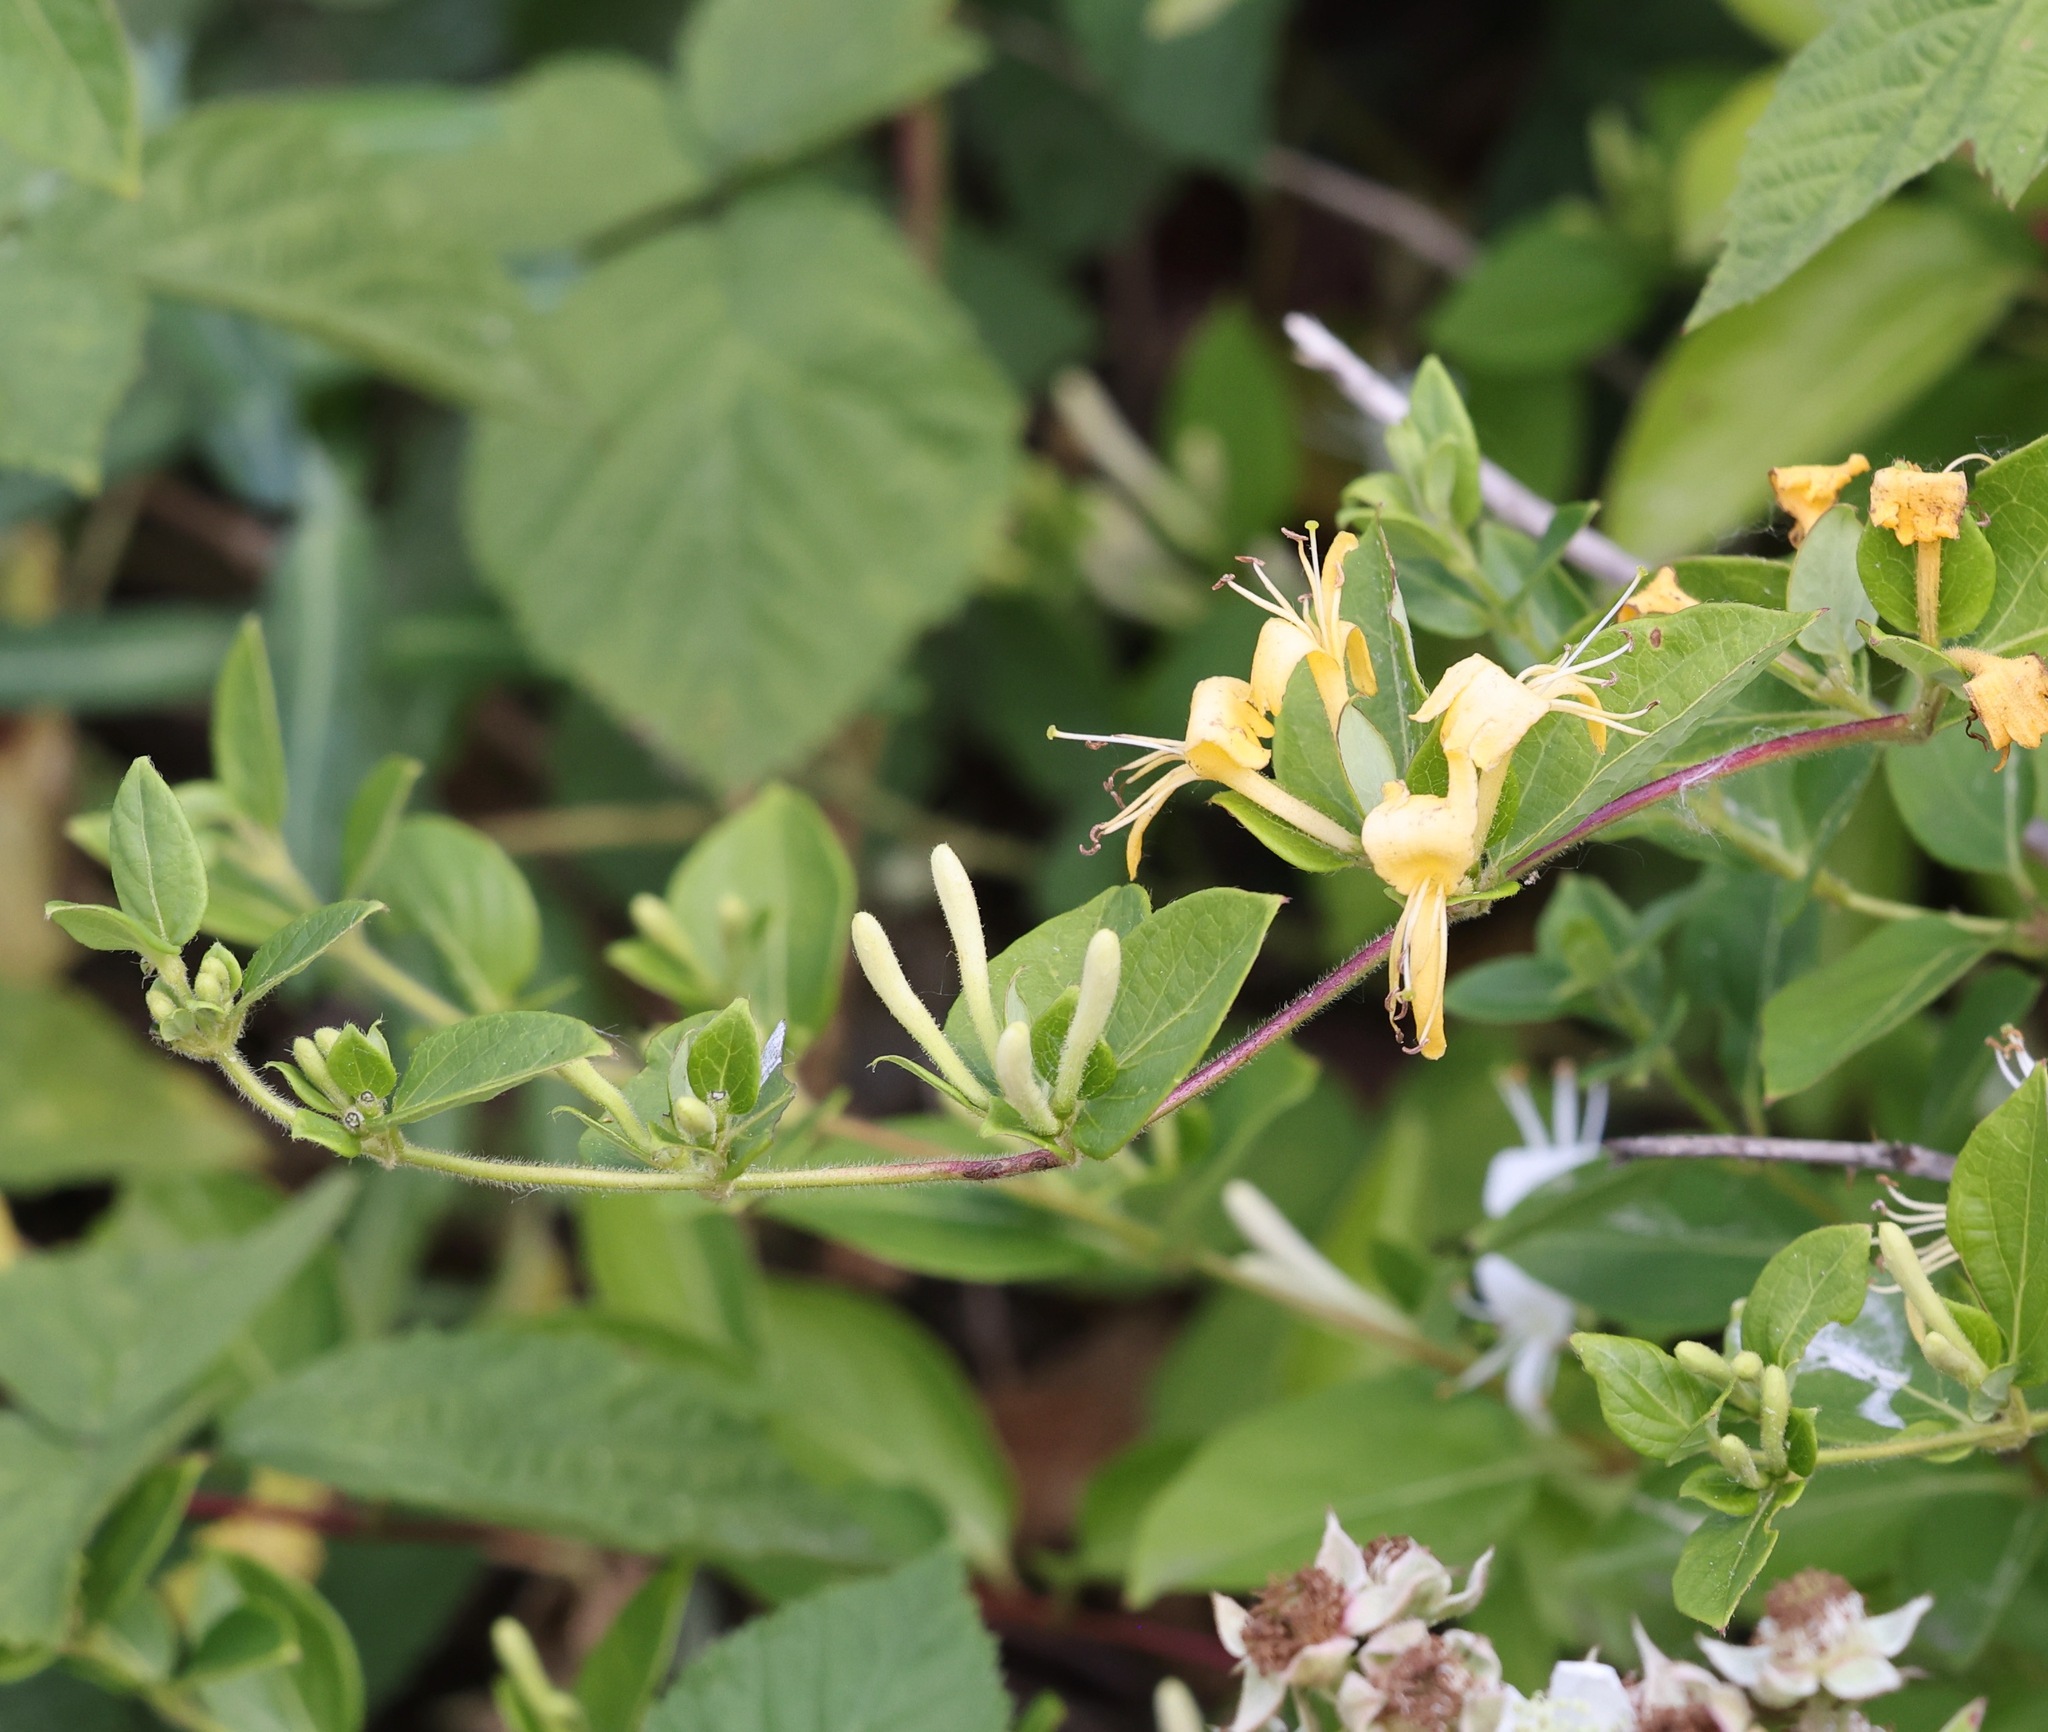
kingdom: Plantae
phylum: Tracheophyta
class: Magnoliopsida
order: Dipsacales
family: Caprifoliaceae
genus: Lonicera
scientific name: Lonicera japonica
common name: Japanese honeysuckle
